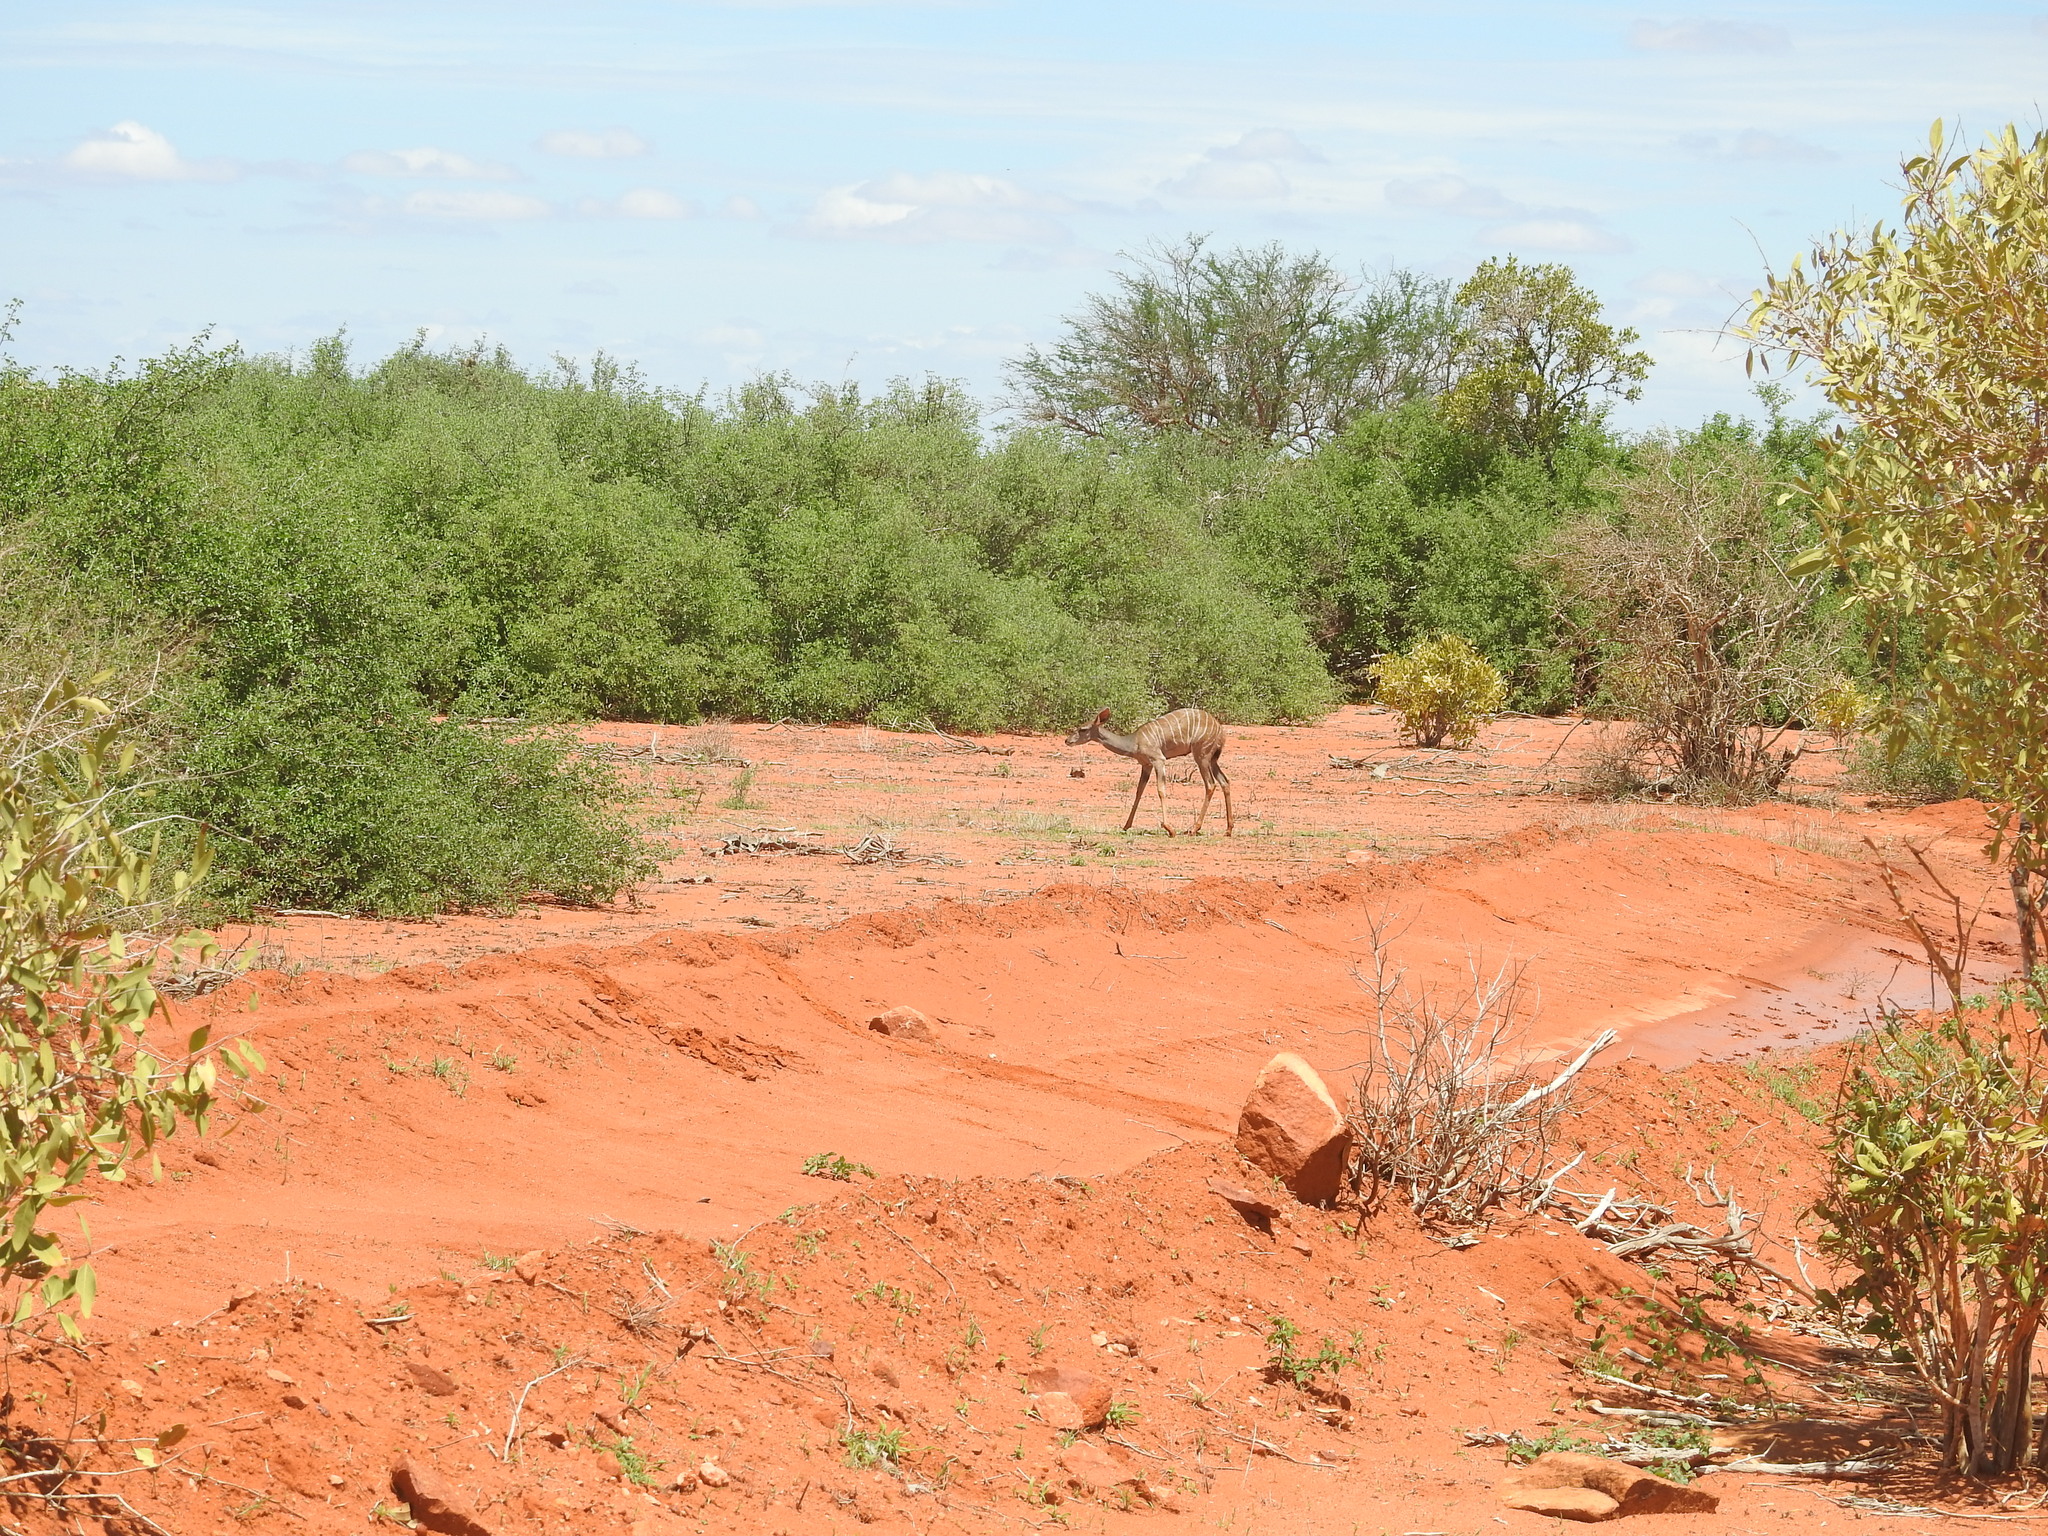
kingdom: Animalia
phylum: Chordata
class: Mammalia
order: Artiodactyla
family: Bovidae
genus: Tragelaphus
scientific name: Tragelaphus imberbis
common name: Lesser kudu
